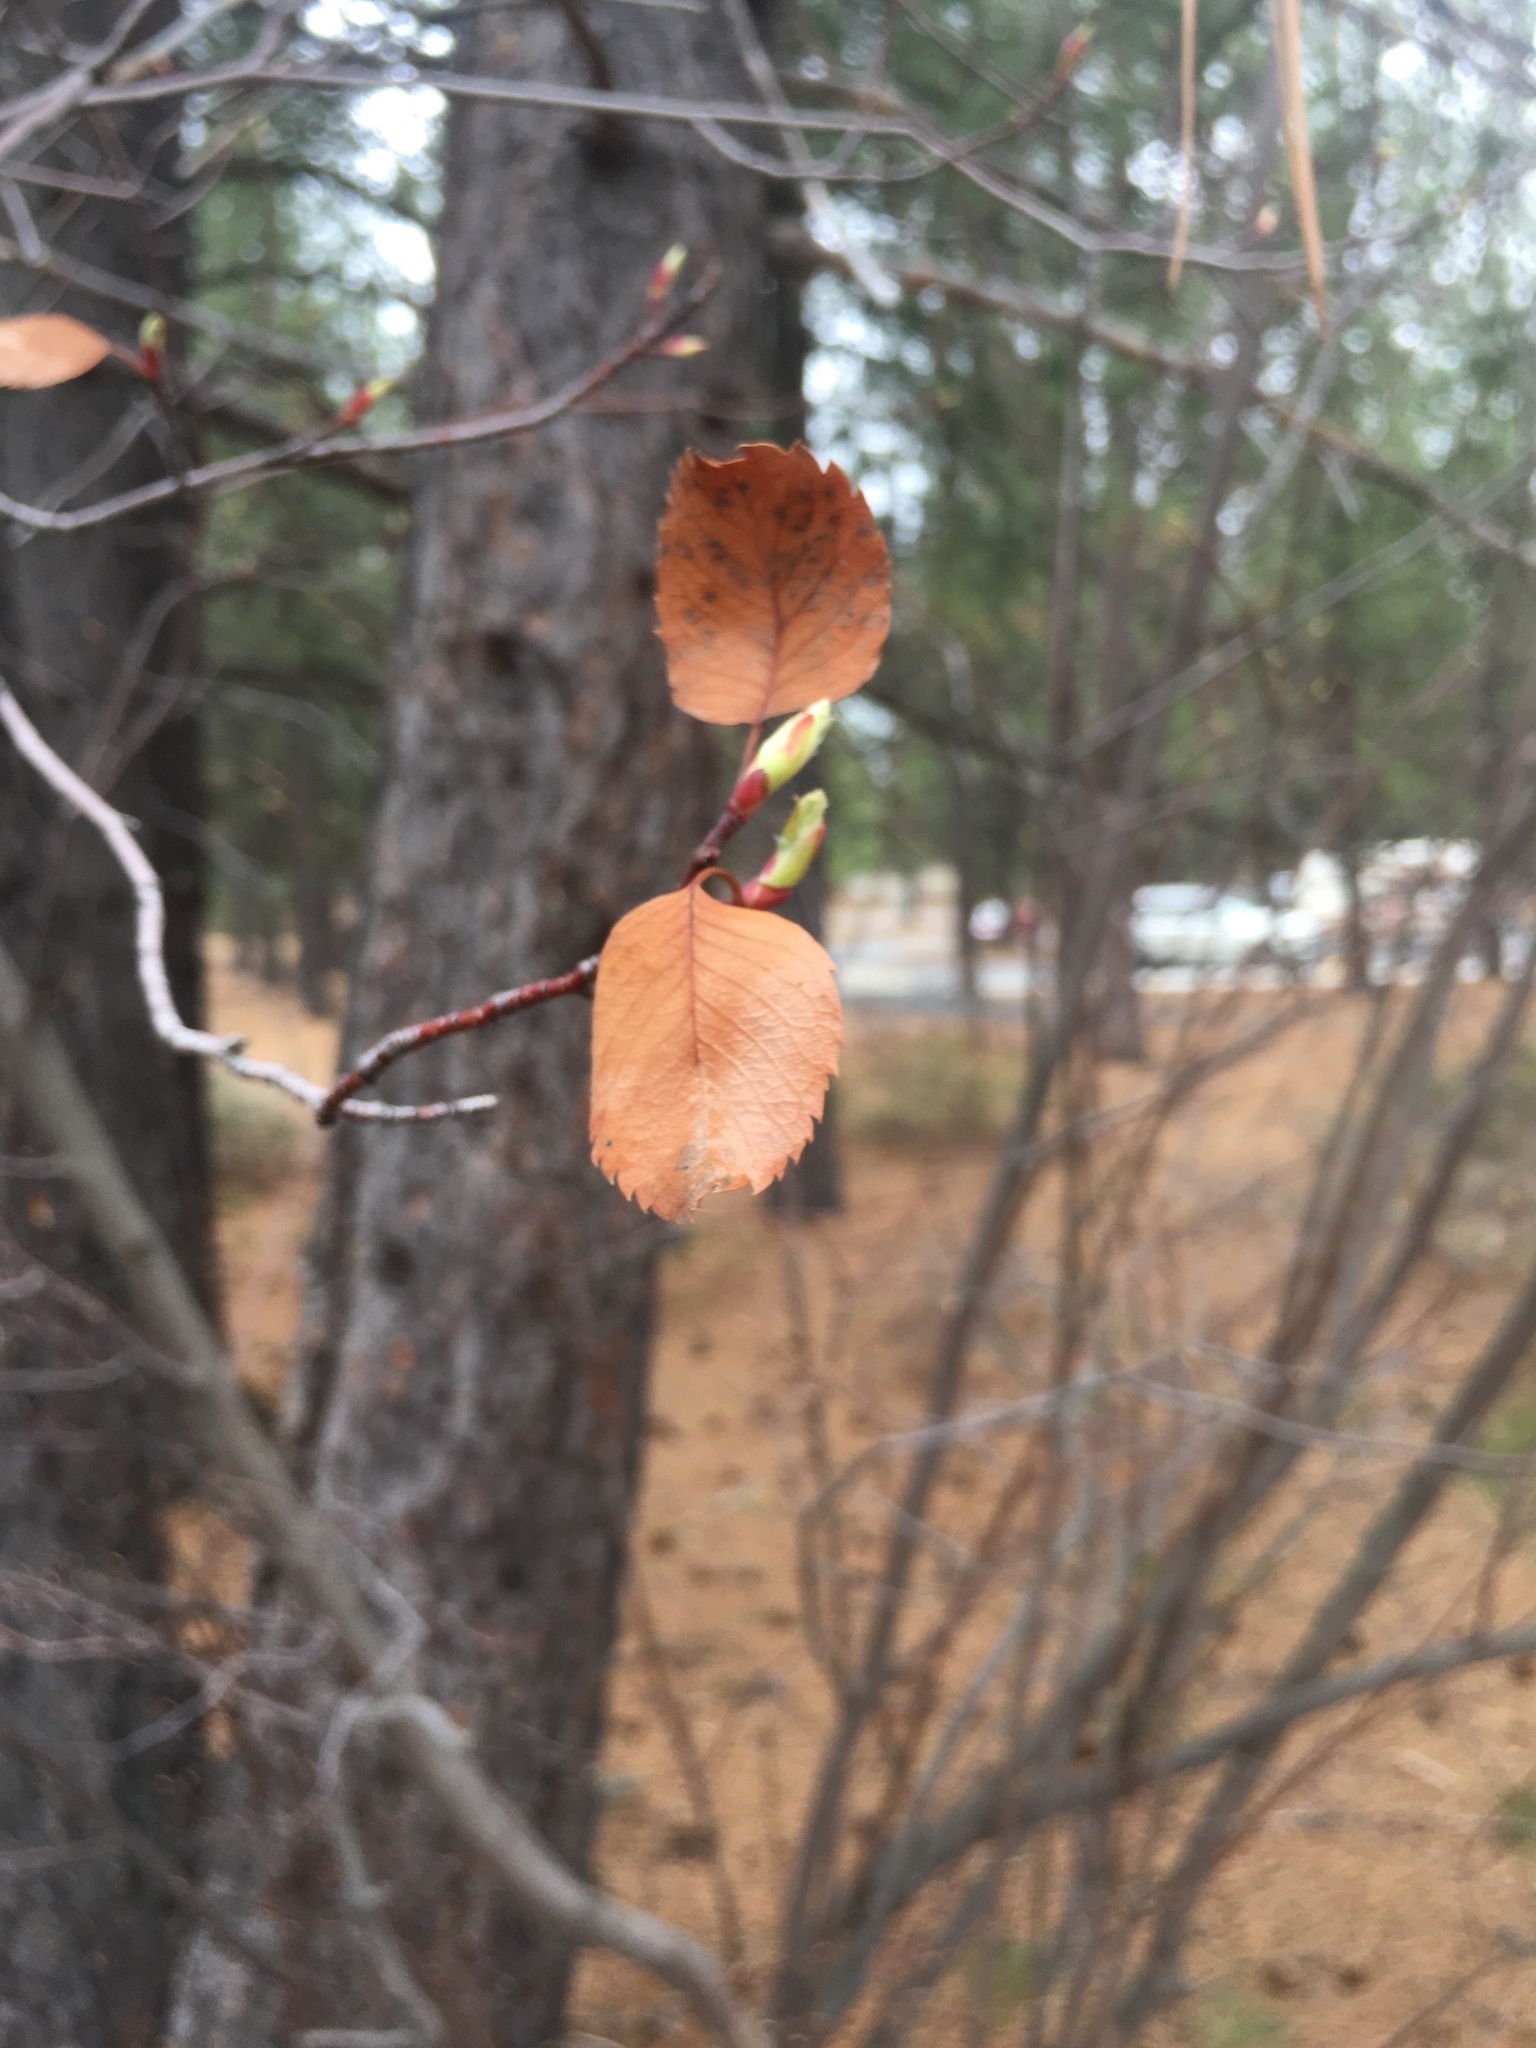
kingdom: Plantae
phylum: Tracheophyta
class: Magnoliopsida
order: Rosales
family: Rosaceae
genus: Amelanchier
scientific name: Amelanchier alnifolia
